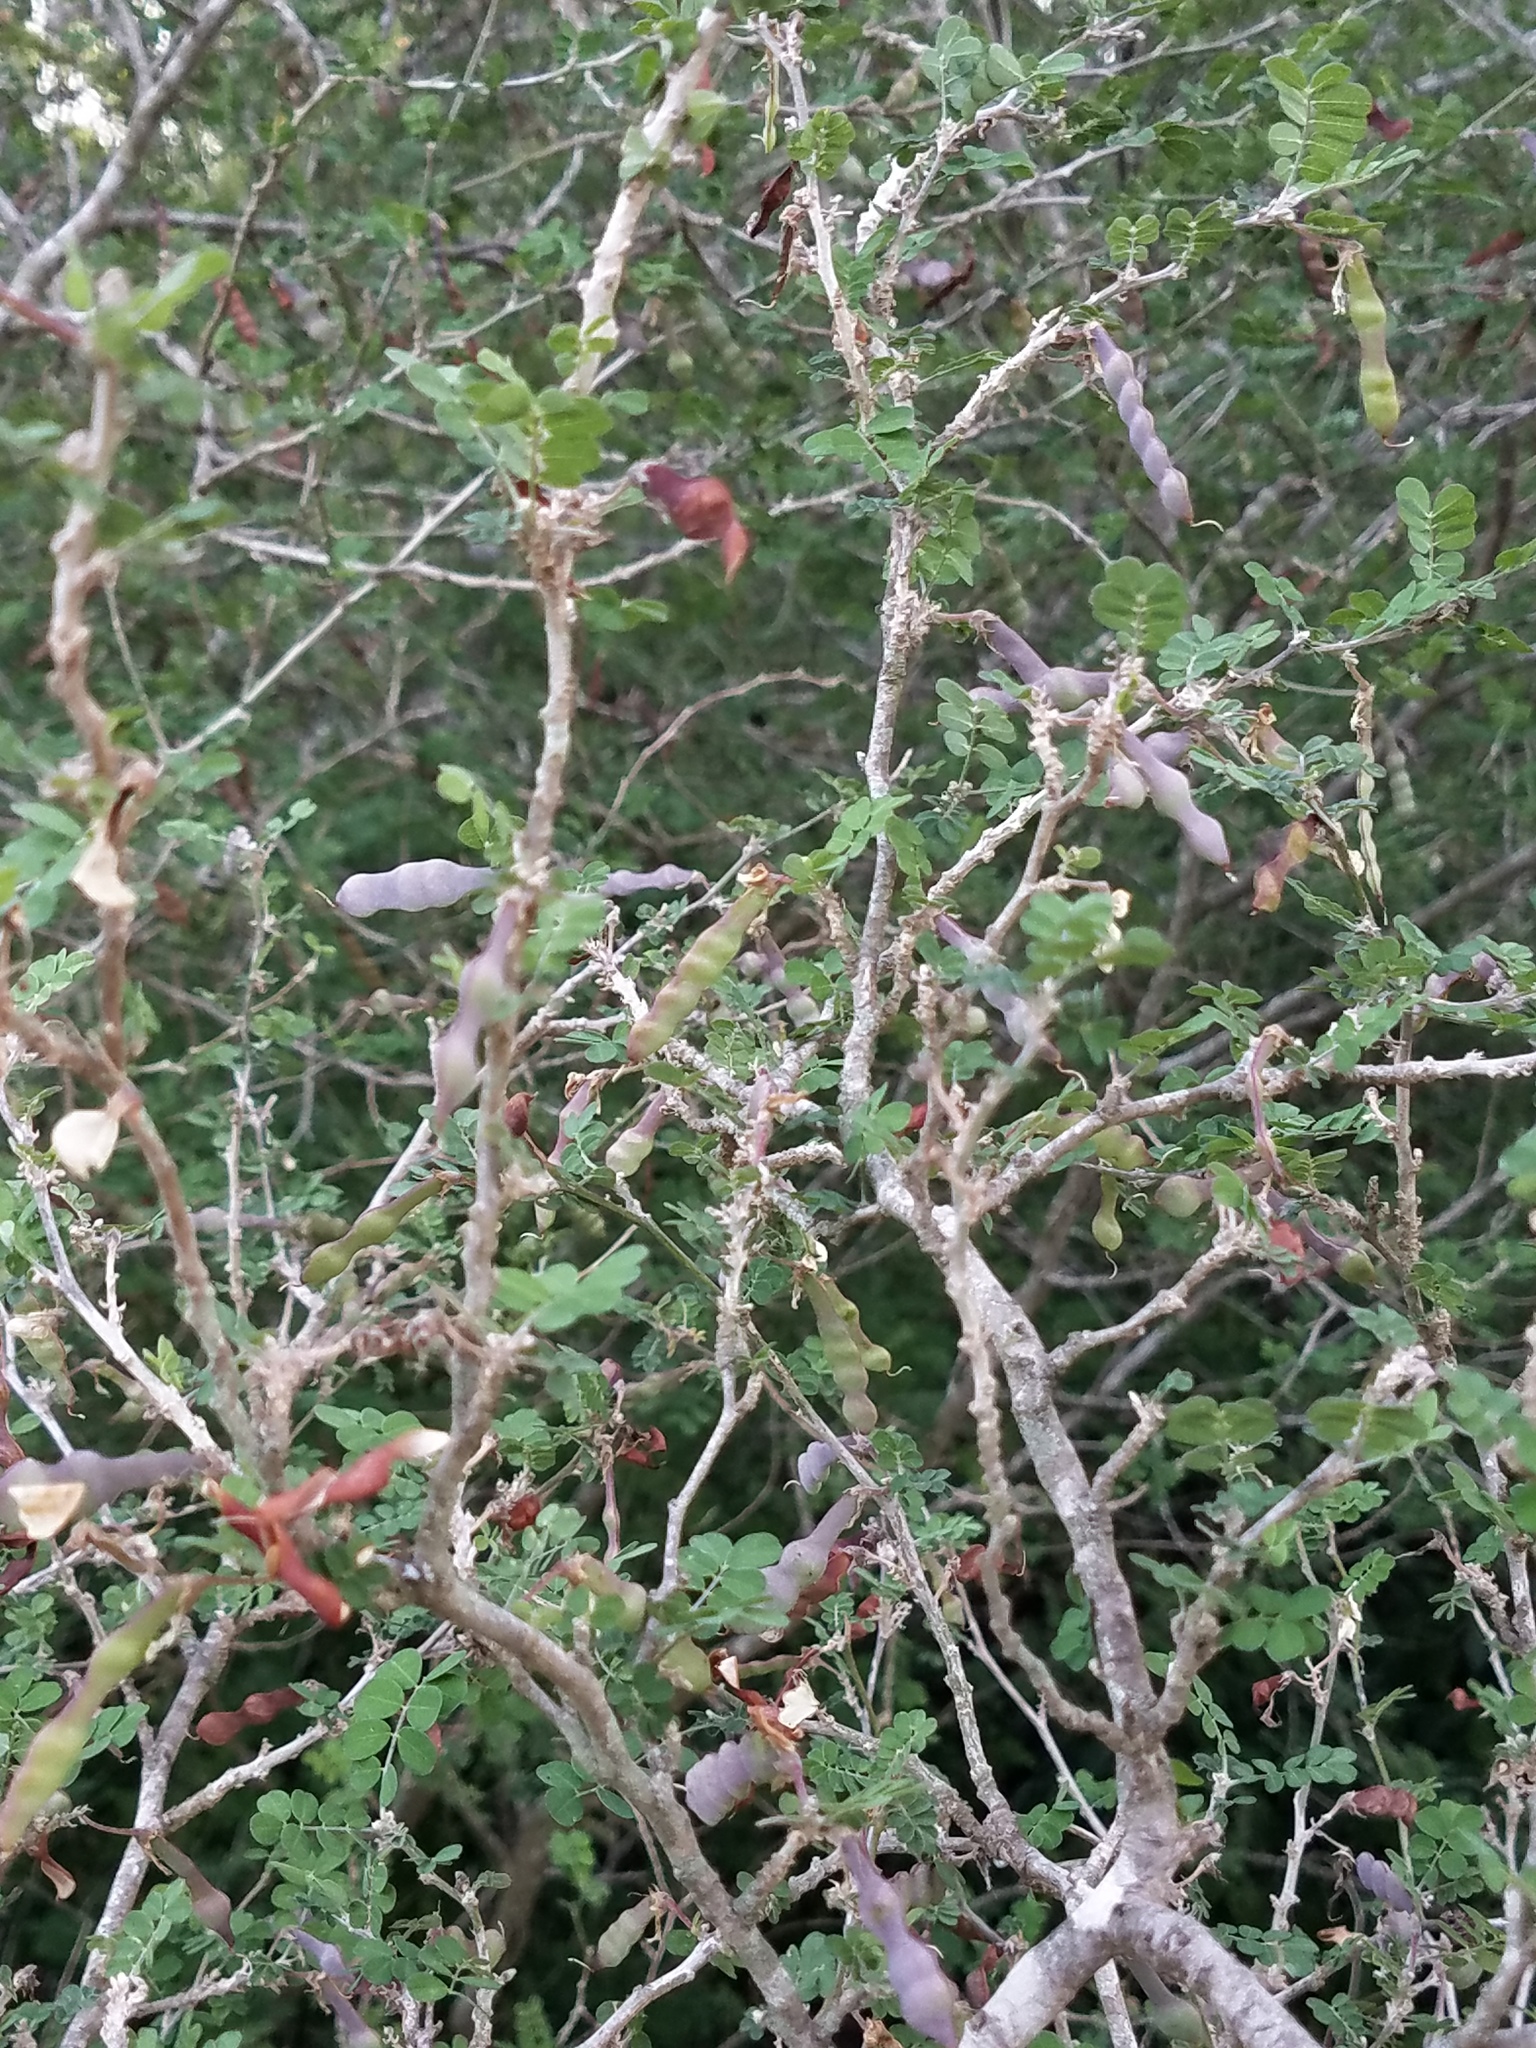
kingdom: Plantae
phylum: Tracheophyta
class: Magnoliopsida
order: Fabales
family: Fabaceae
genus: Coursetia
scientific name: Coursetia axillaris
